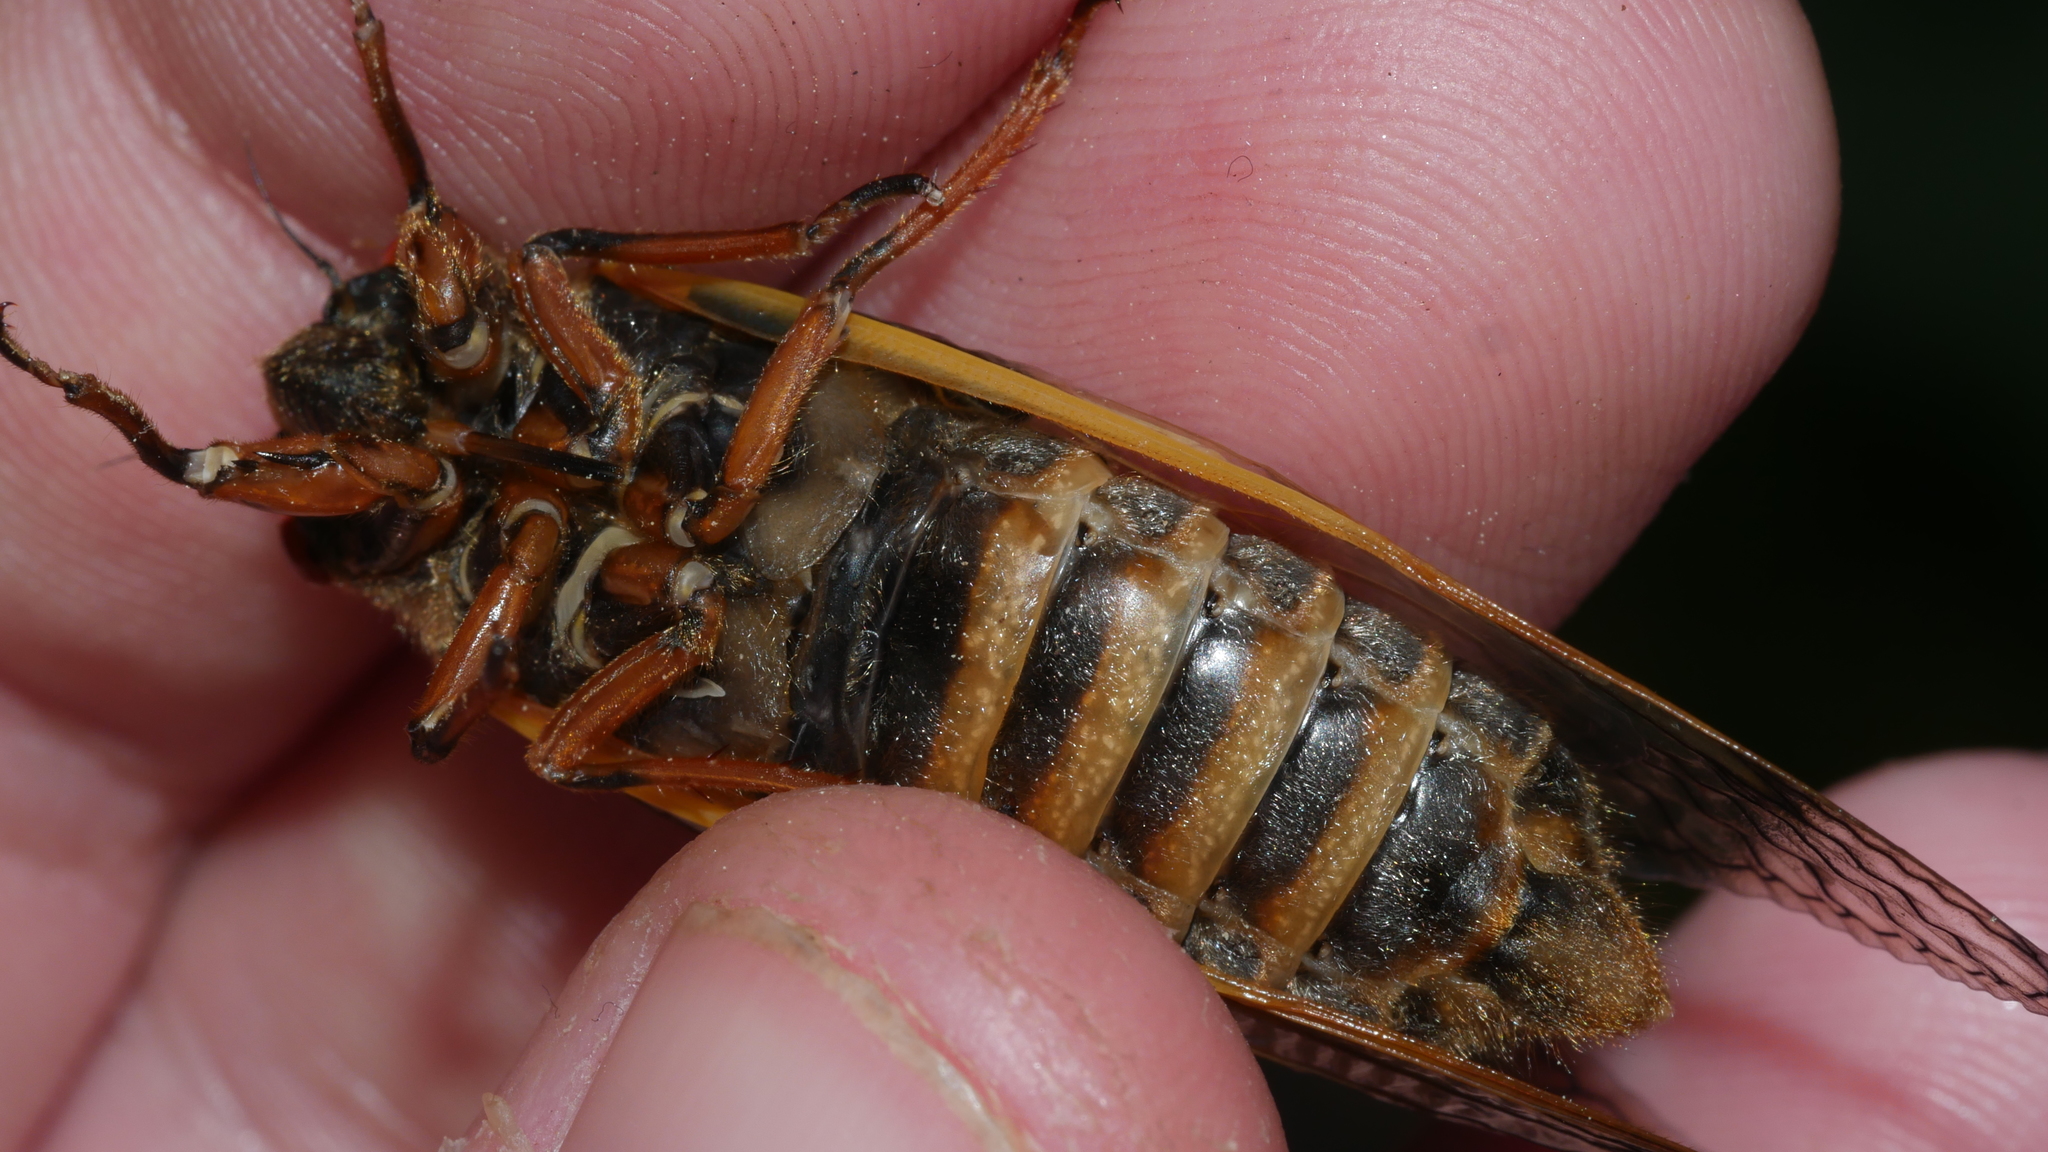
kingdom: Animalia
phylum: Arthropoda
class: Insecta
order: Hemiptera
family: Cicadidae
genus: Magicicada
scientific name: Magicicada septendecim
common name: Periodical cicada
